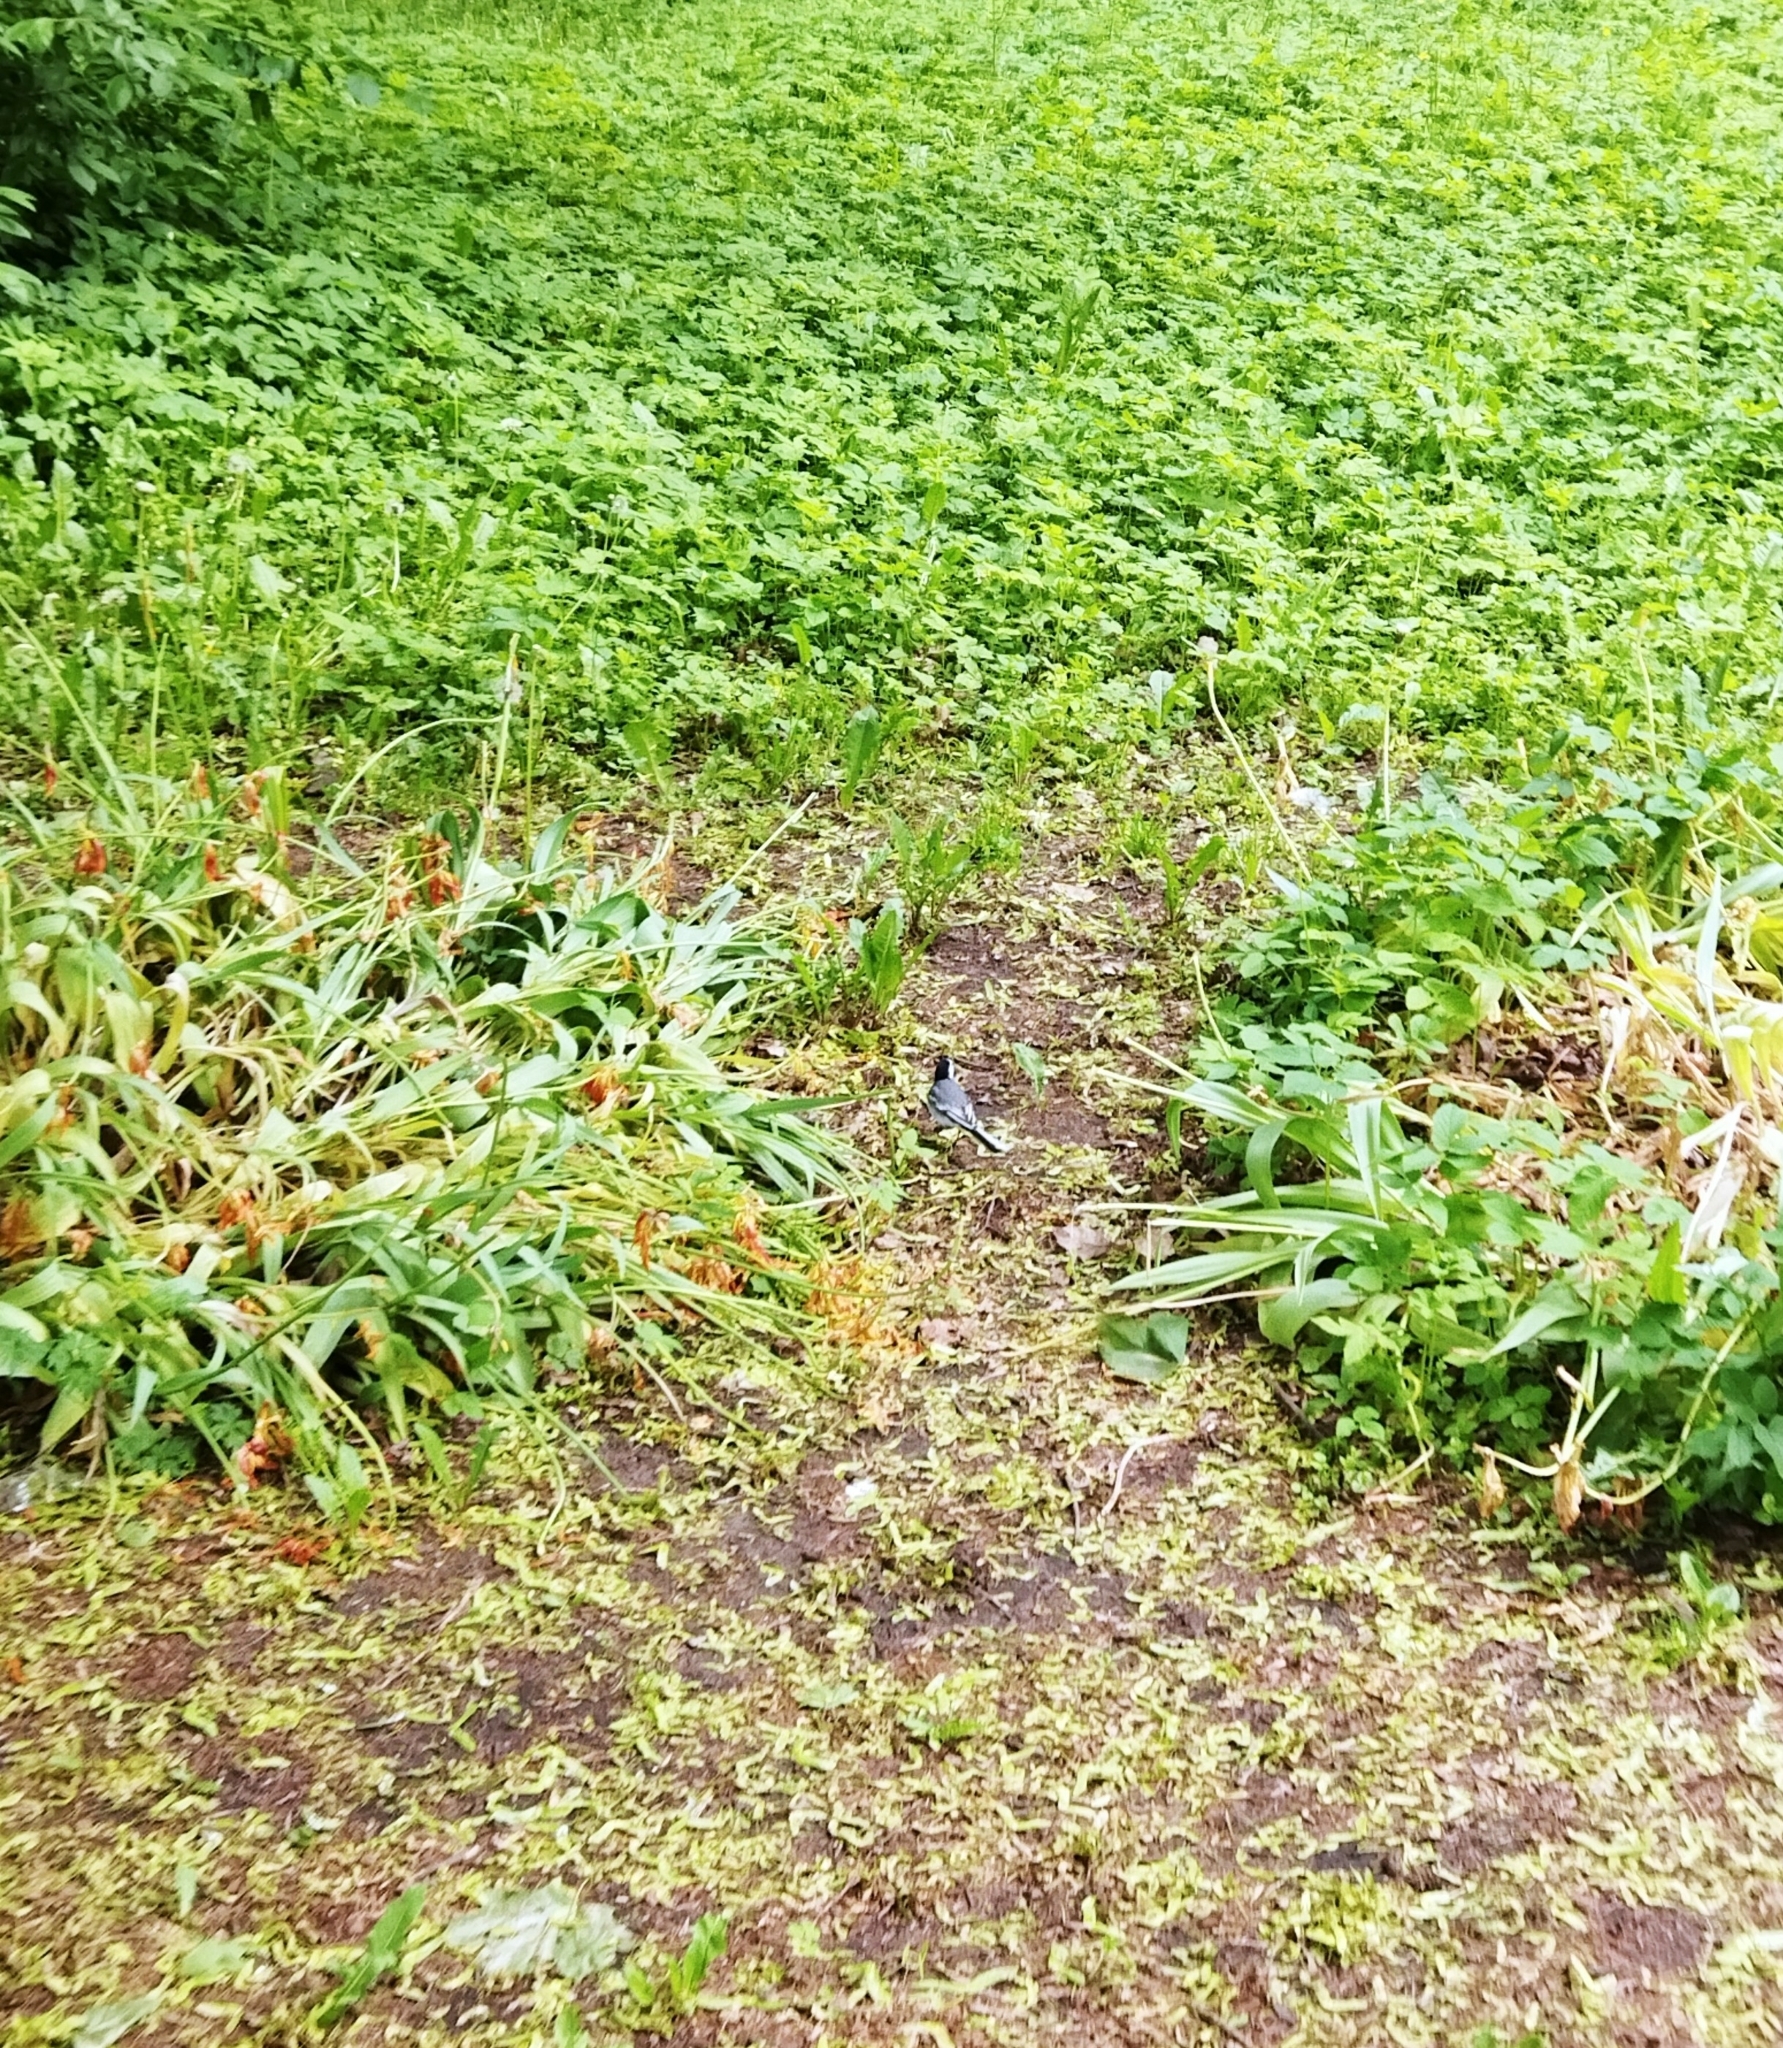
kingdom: Animalia
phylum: Chordata
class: Aves
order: Passeriformes
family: Motacillidae
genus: Motacilla
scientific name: Motacilla alba
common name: White wagtail
